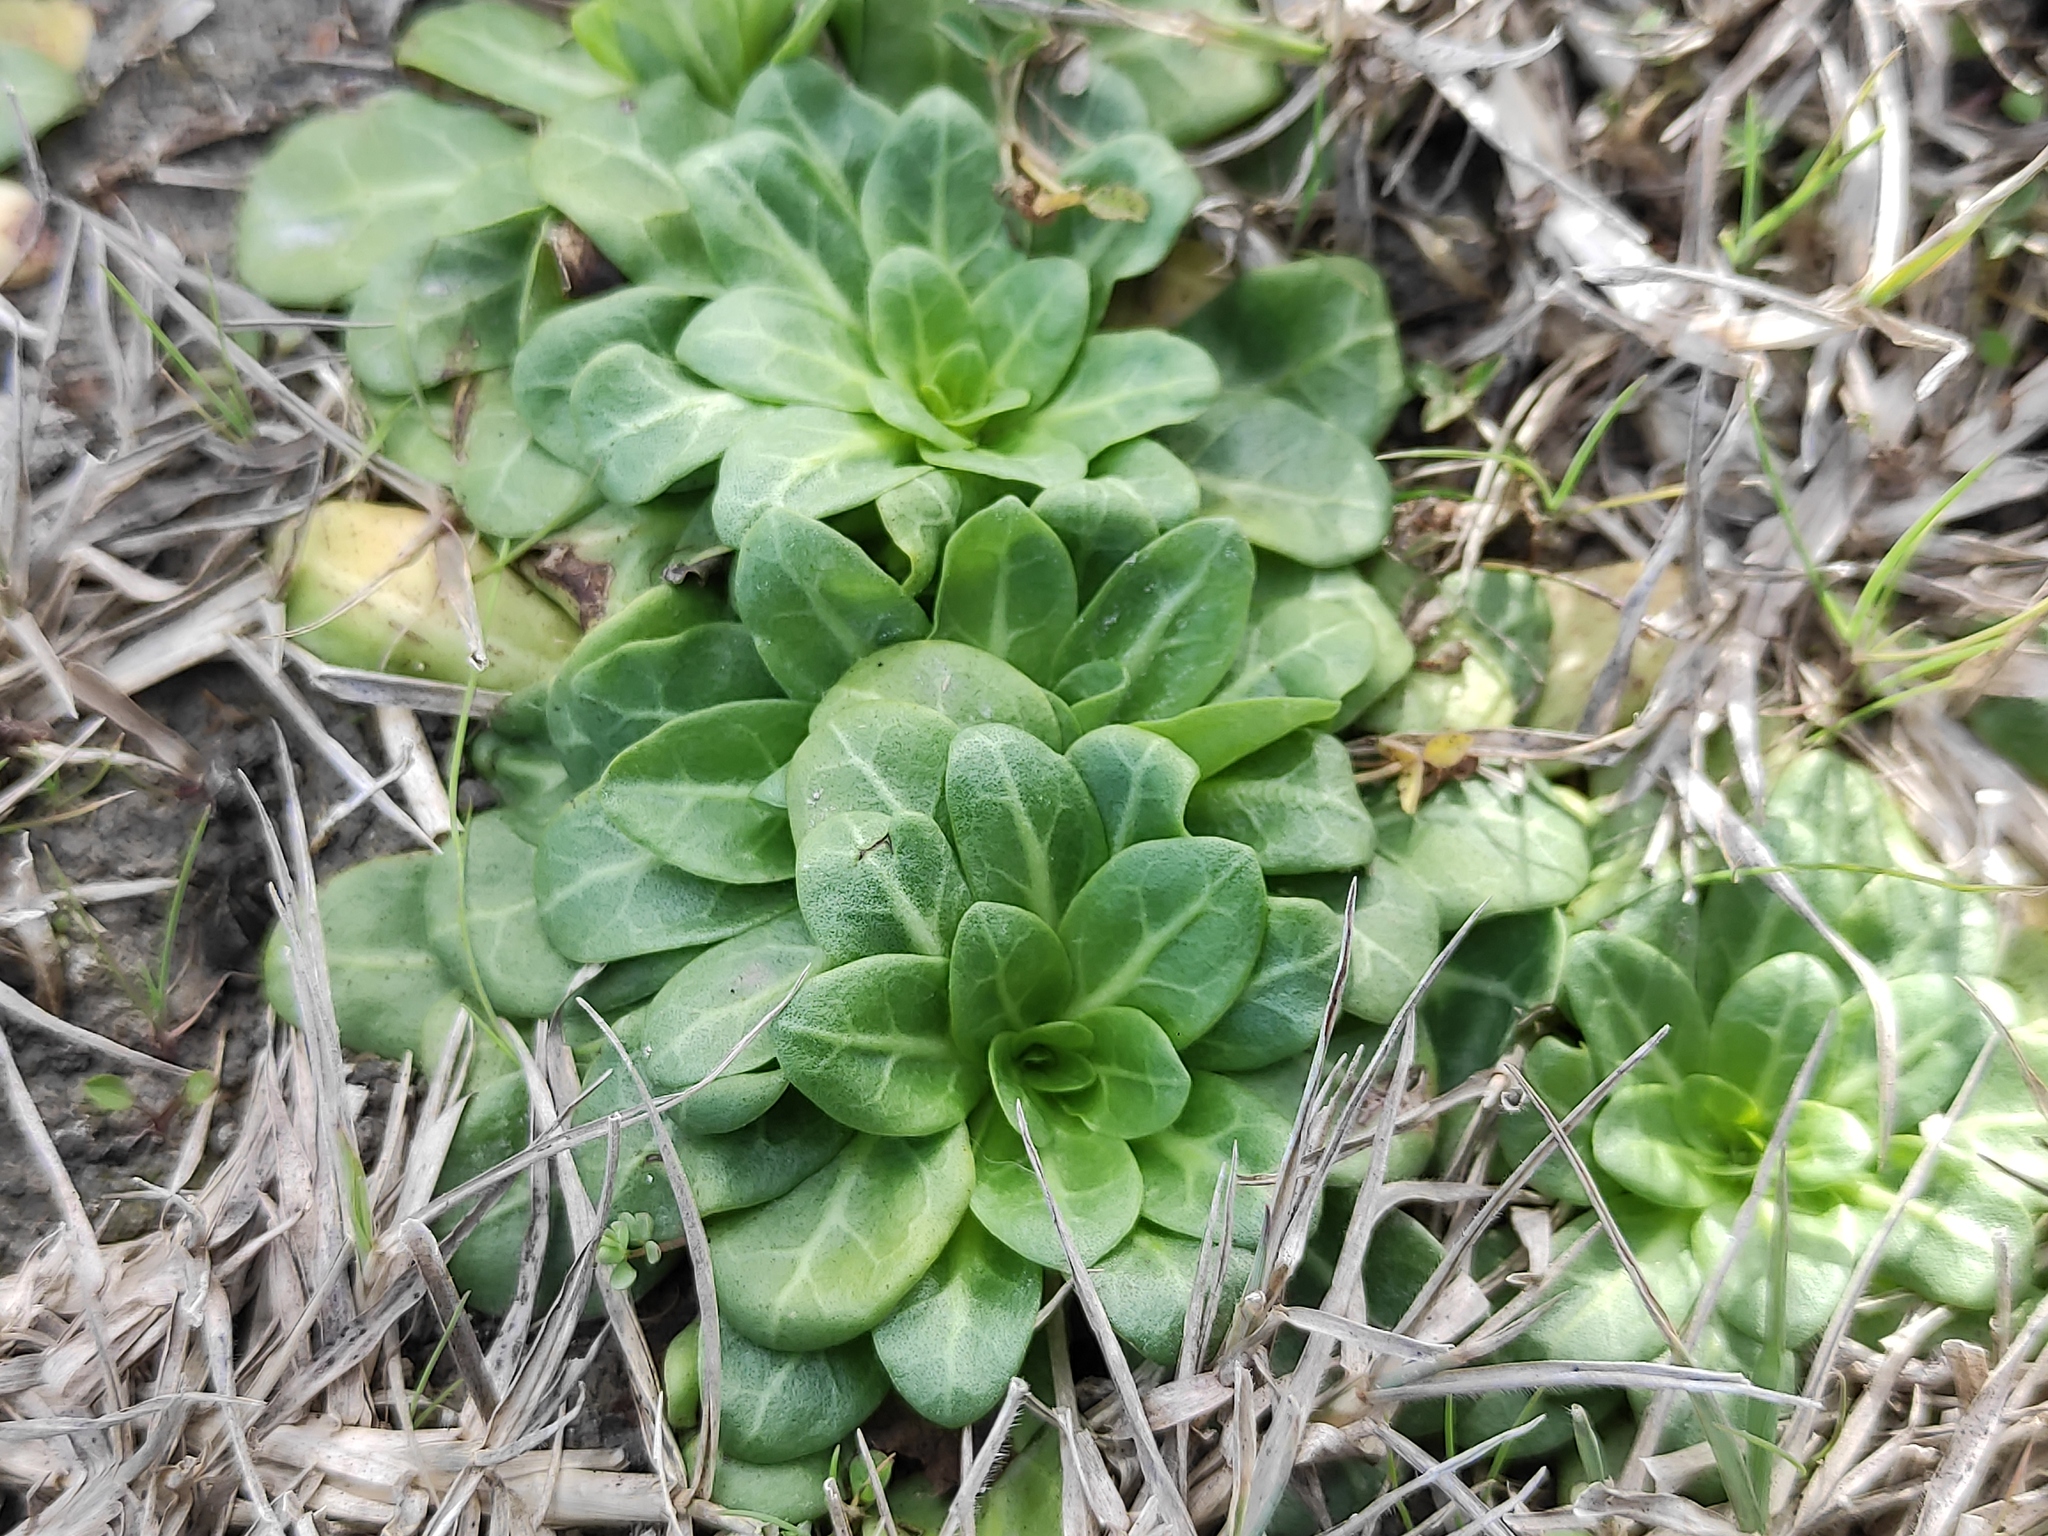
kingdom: Plantae
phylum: Tracheophyta
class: Magnoliopsida
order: Ericales
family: Primulaceae
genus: Samolus
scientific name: Samolus valerandi
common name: Brookweed
